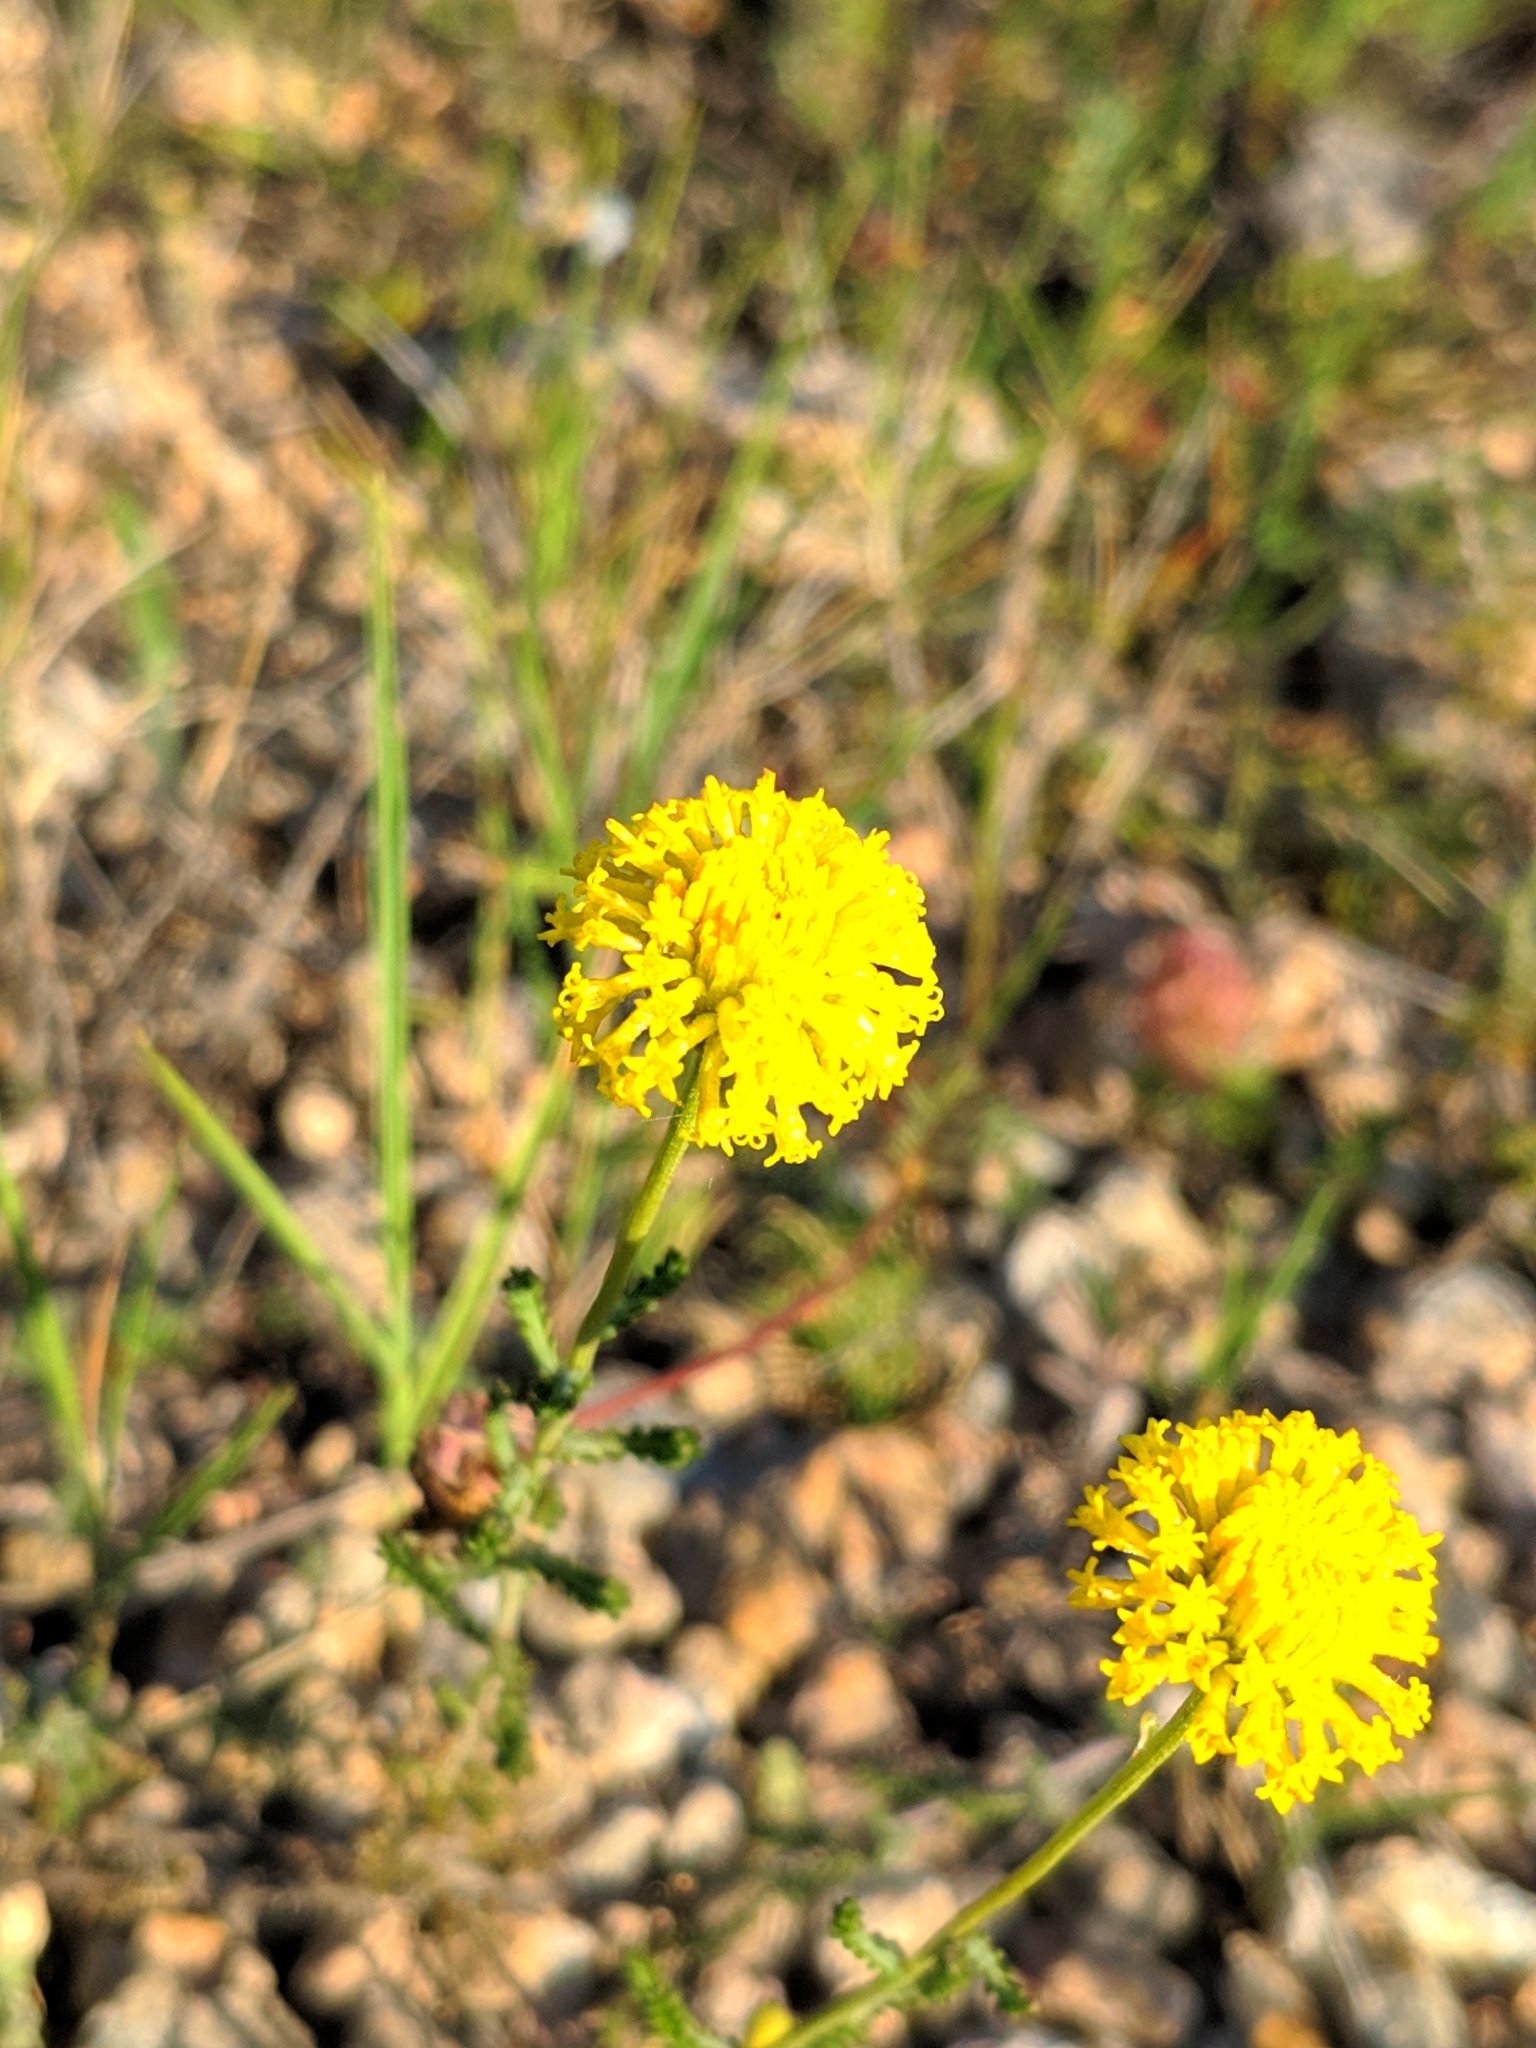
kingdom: Plantae
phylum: Tracheophyta
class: Magnoliopsida
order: Asterales
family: Asteraceae
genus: Santolina
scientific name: Santolina ericoides
